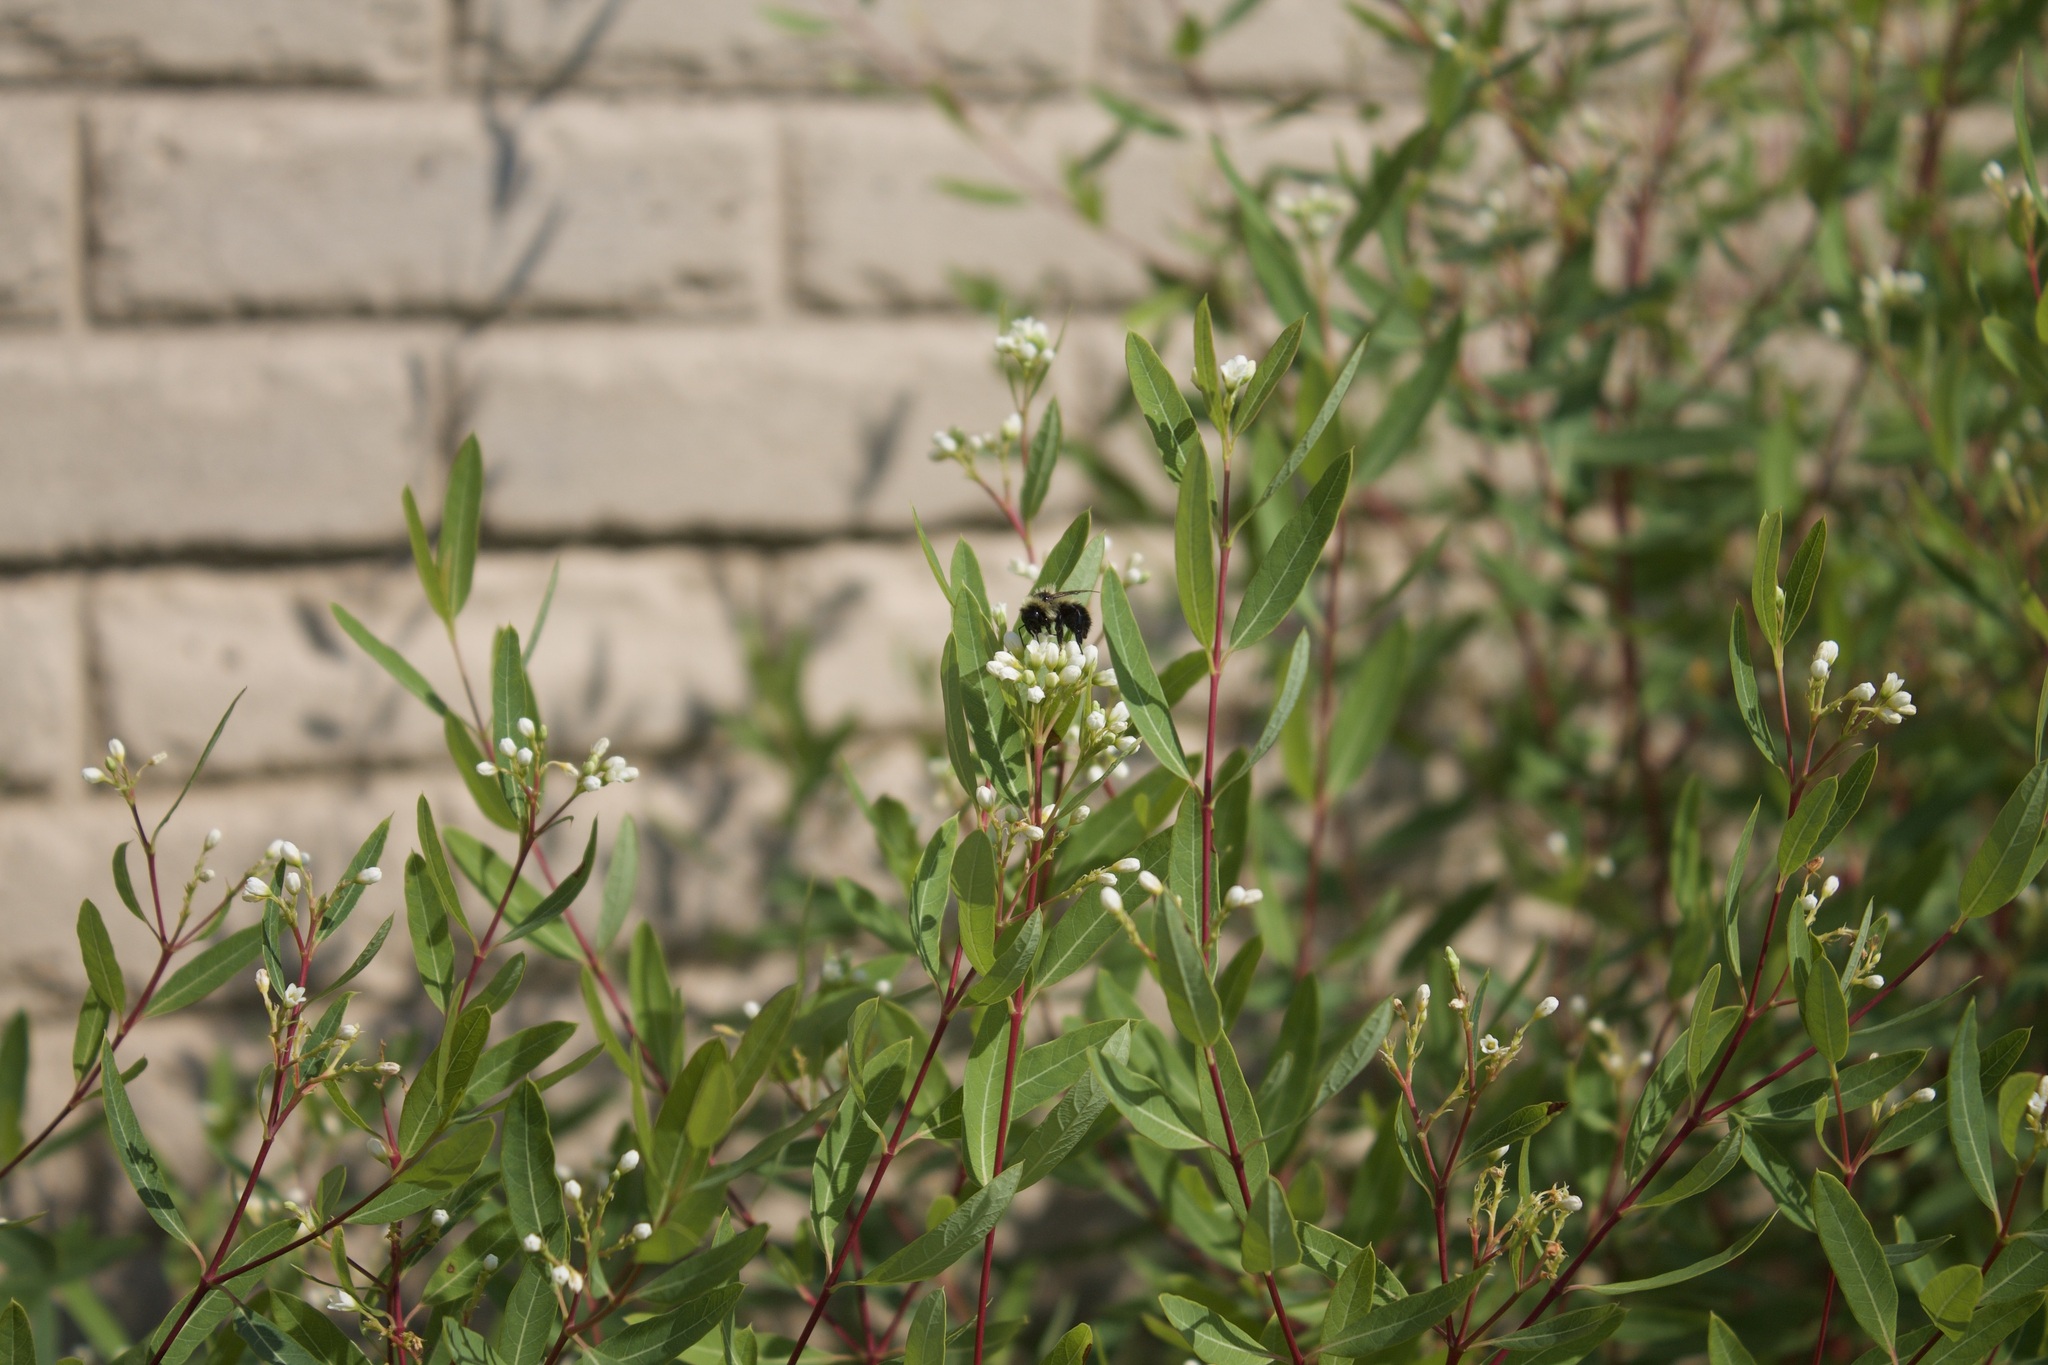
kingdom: Animalia
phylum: Arthropoda
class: Insecta
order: Hymenoptera
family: Apidae
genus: Bombus
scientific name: Bombus rufocinctus
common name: Red-belted bumble bee
